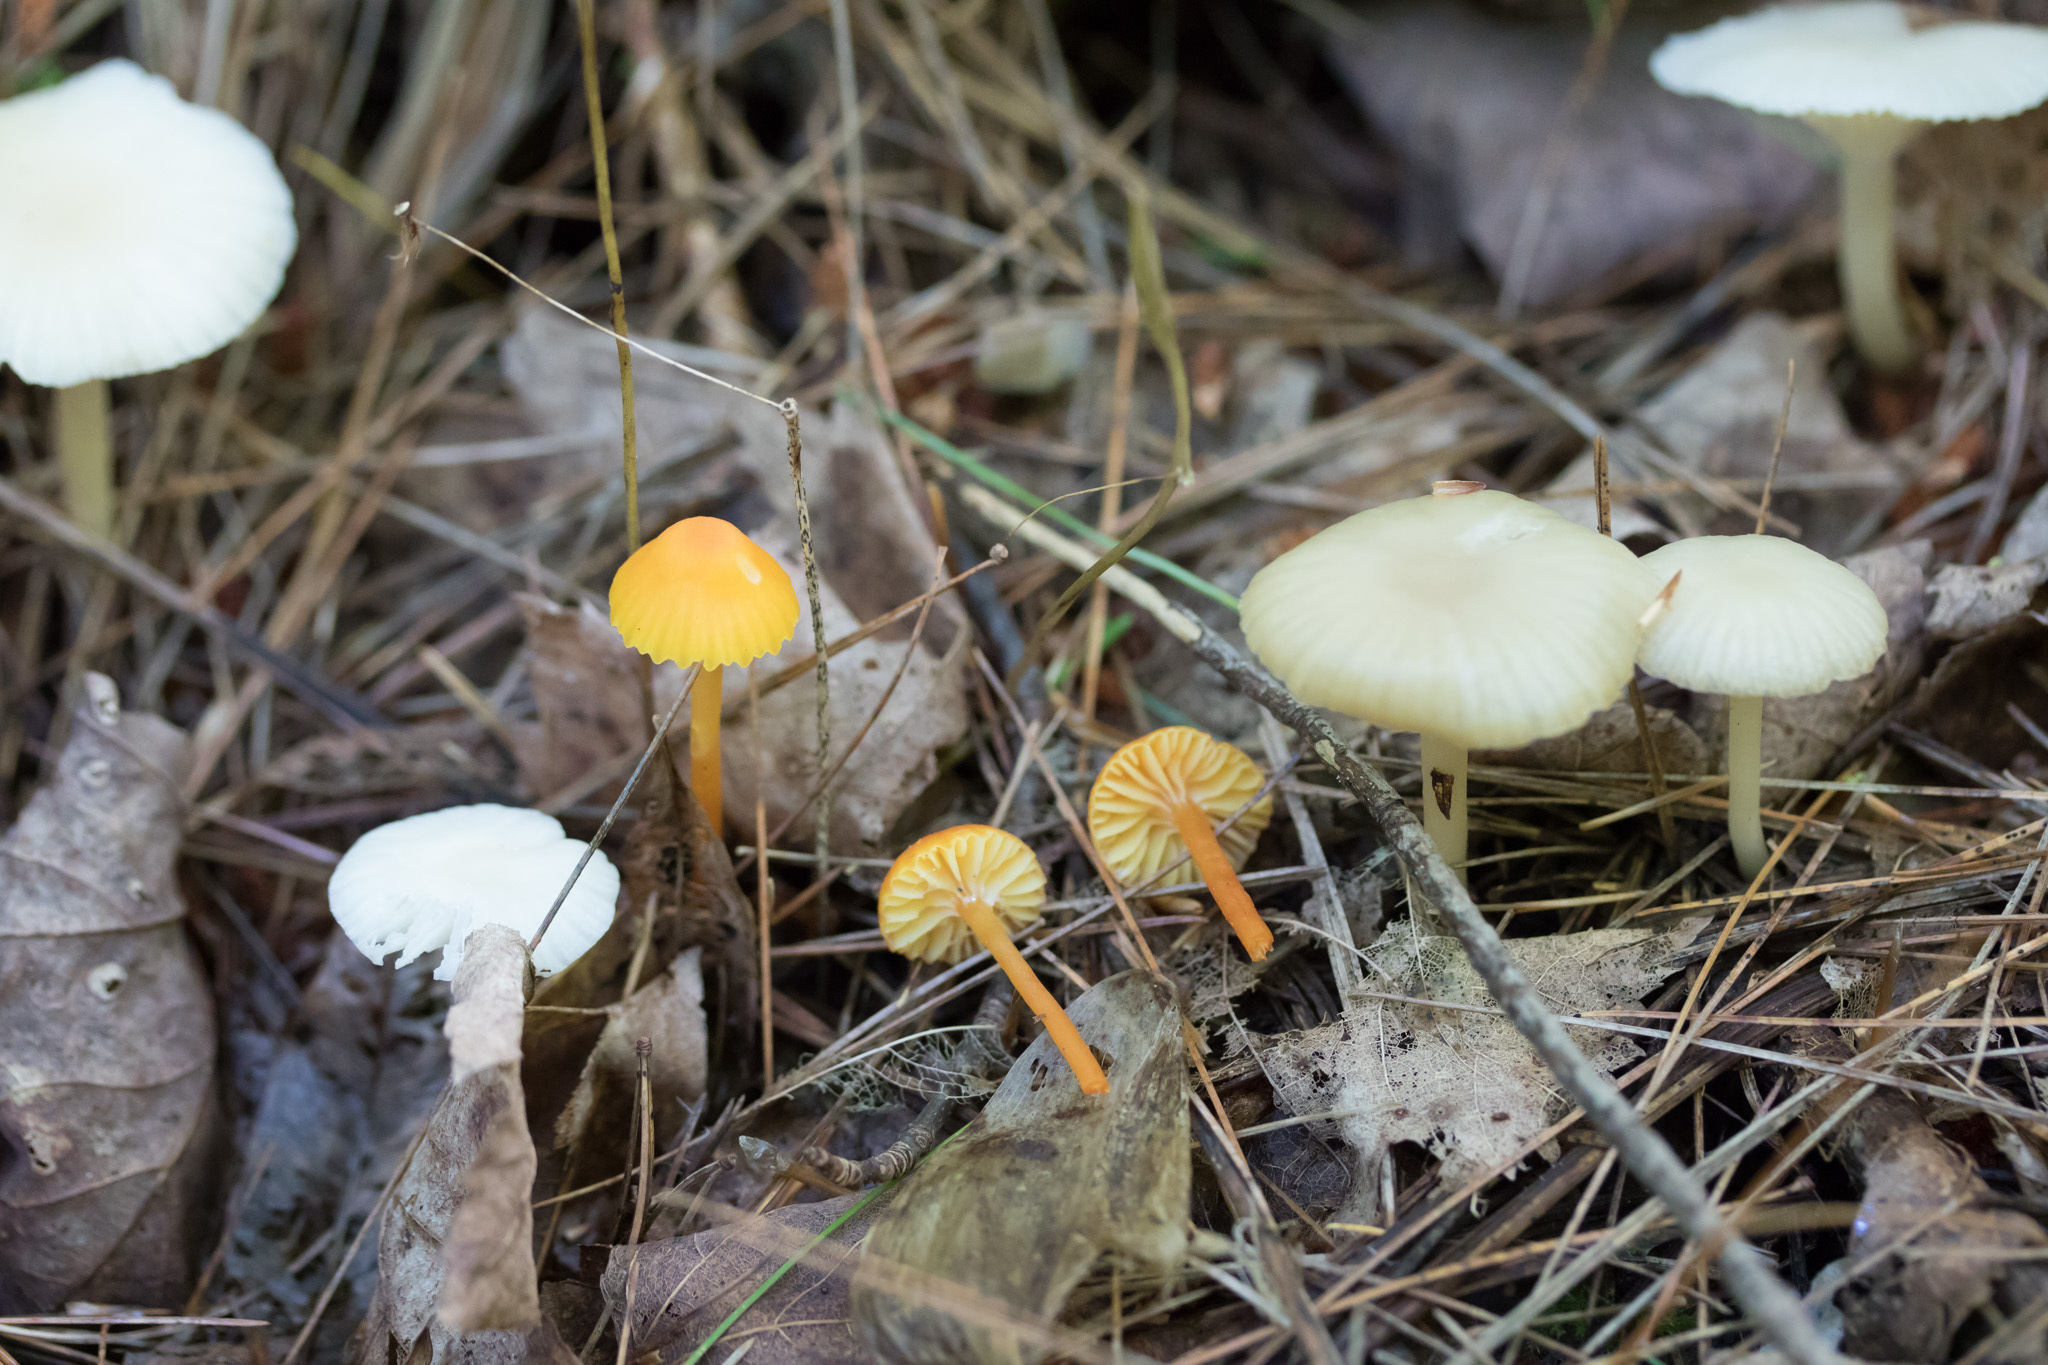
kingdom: Fungi
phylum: Basidiomycota
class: Agaricomycetes
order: Agaricales
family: Hygrophoraceae
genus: Hygrocybe
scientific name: Hygrocybe cantharellus
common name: Goblet waxcap
